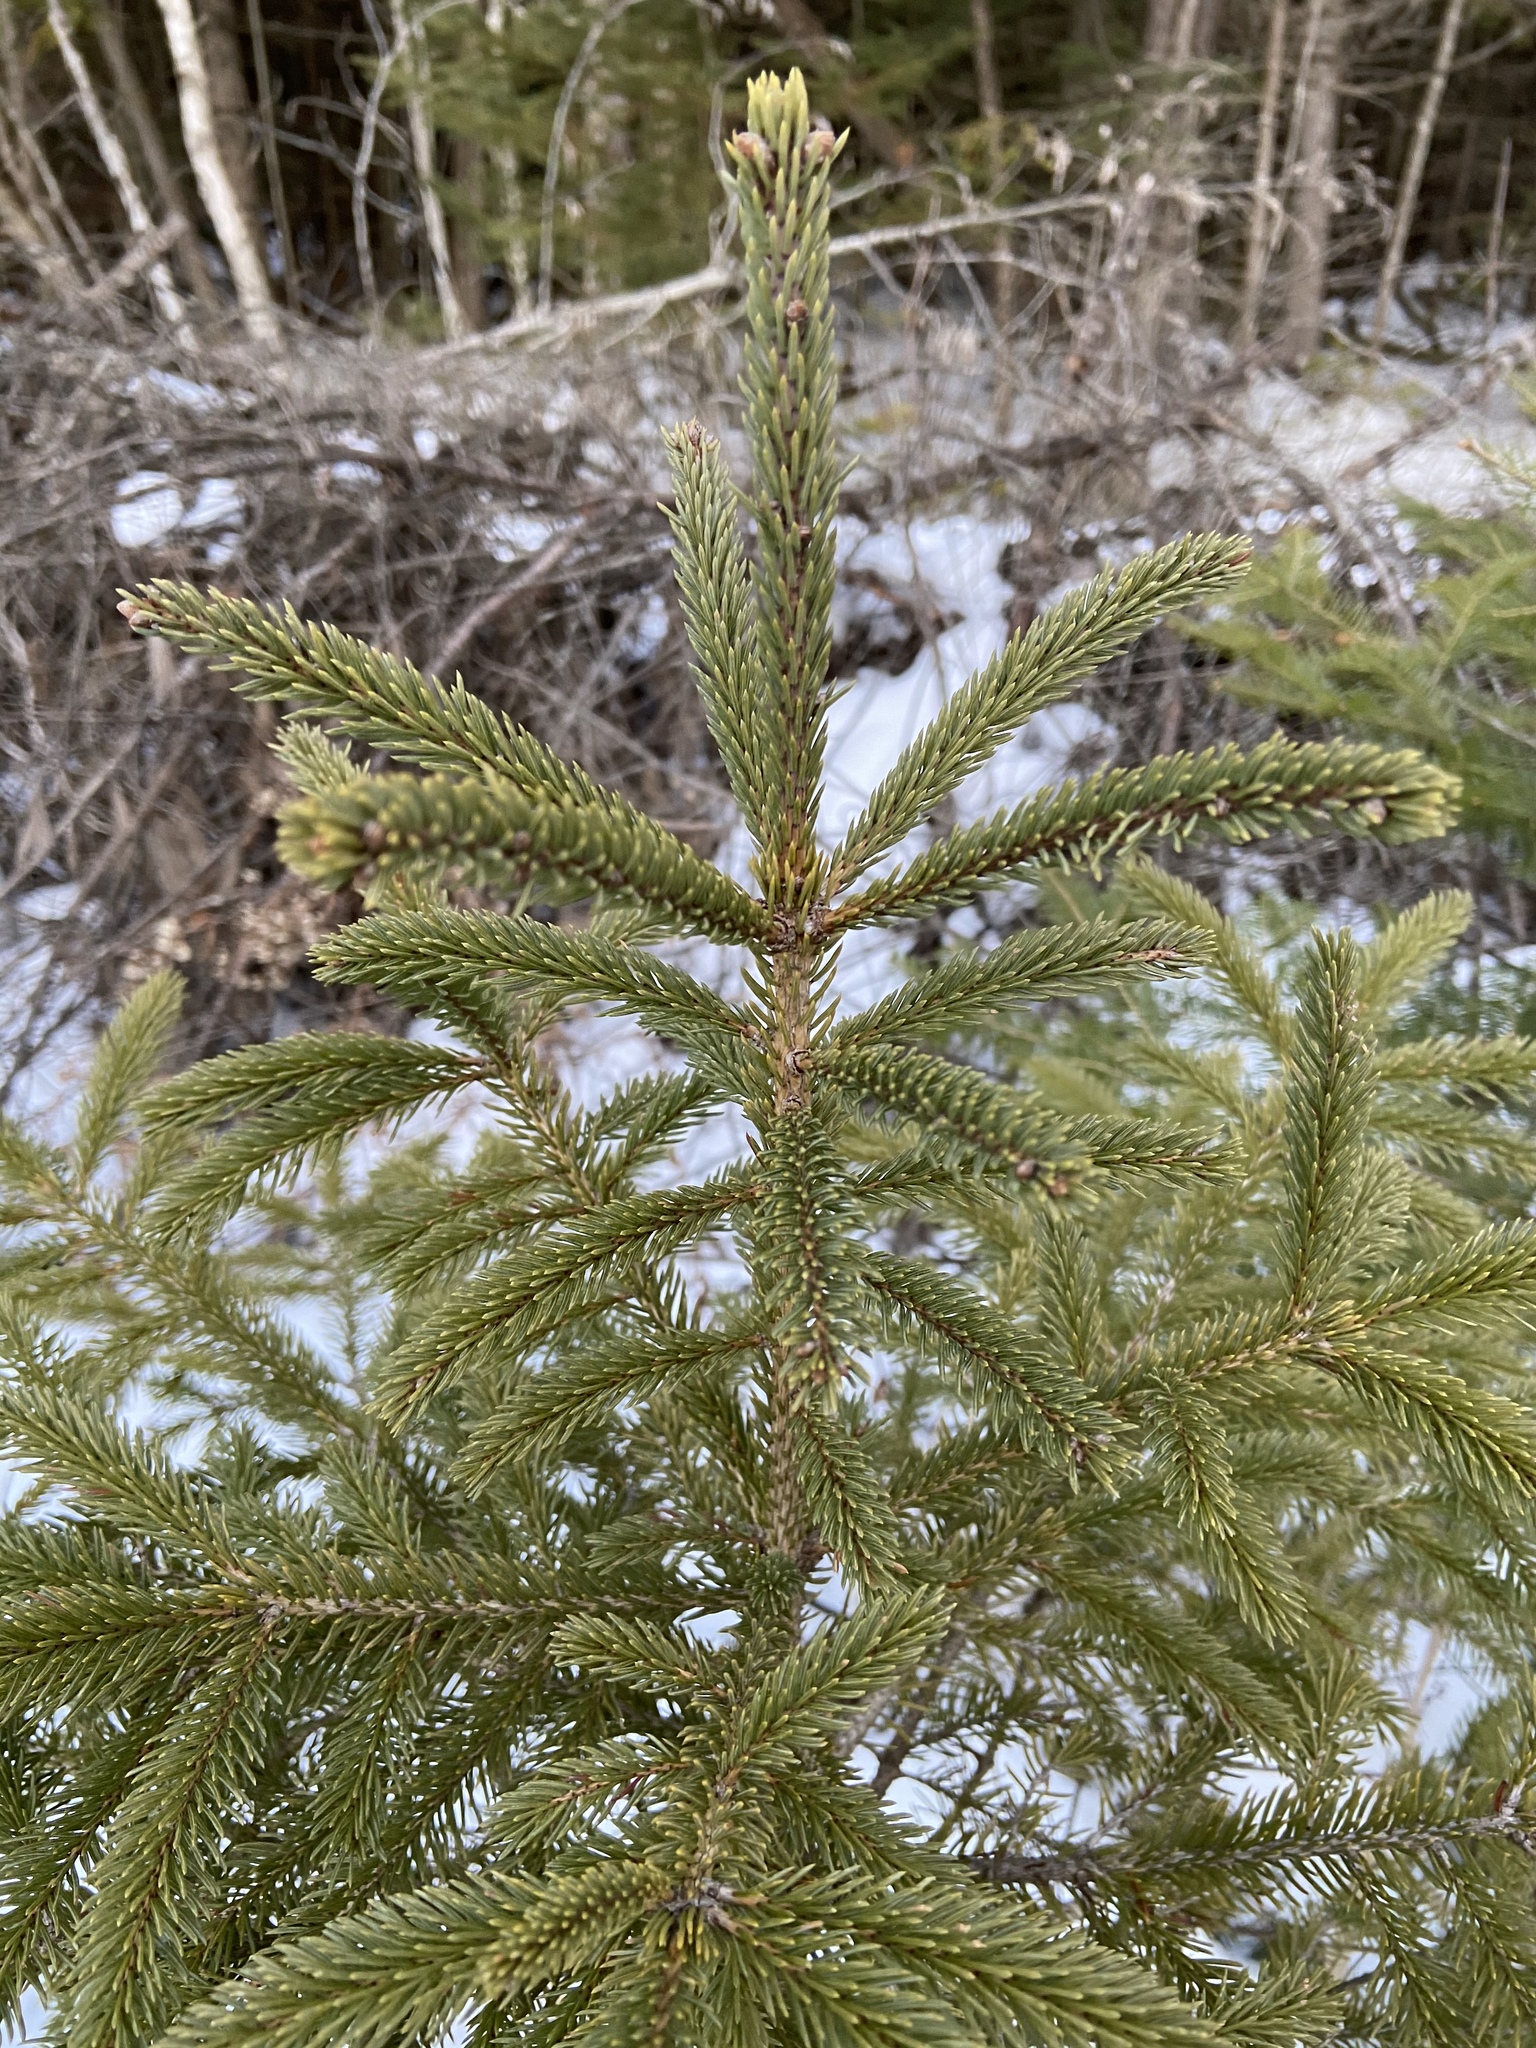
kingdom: Plantae
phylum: Tracheophyta
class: Pinopsida
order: Pinales
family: Pinaceae
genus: Picea
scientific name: Picea glauca
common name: White spruce
